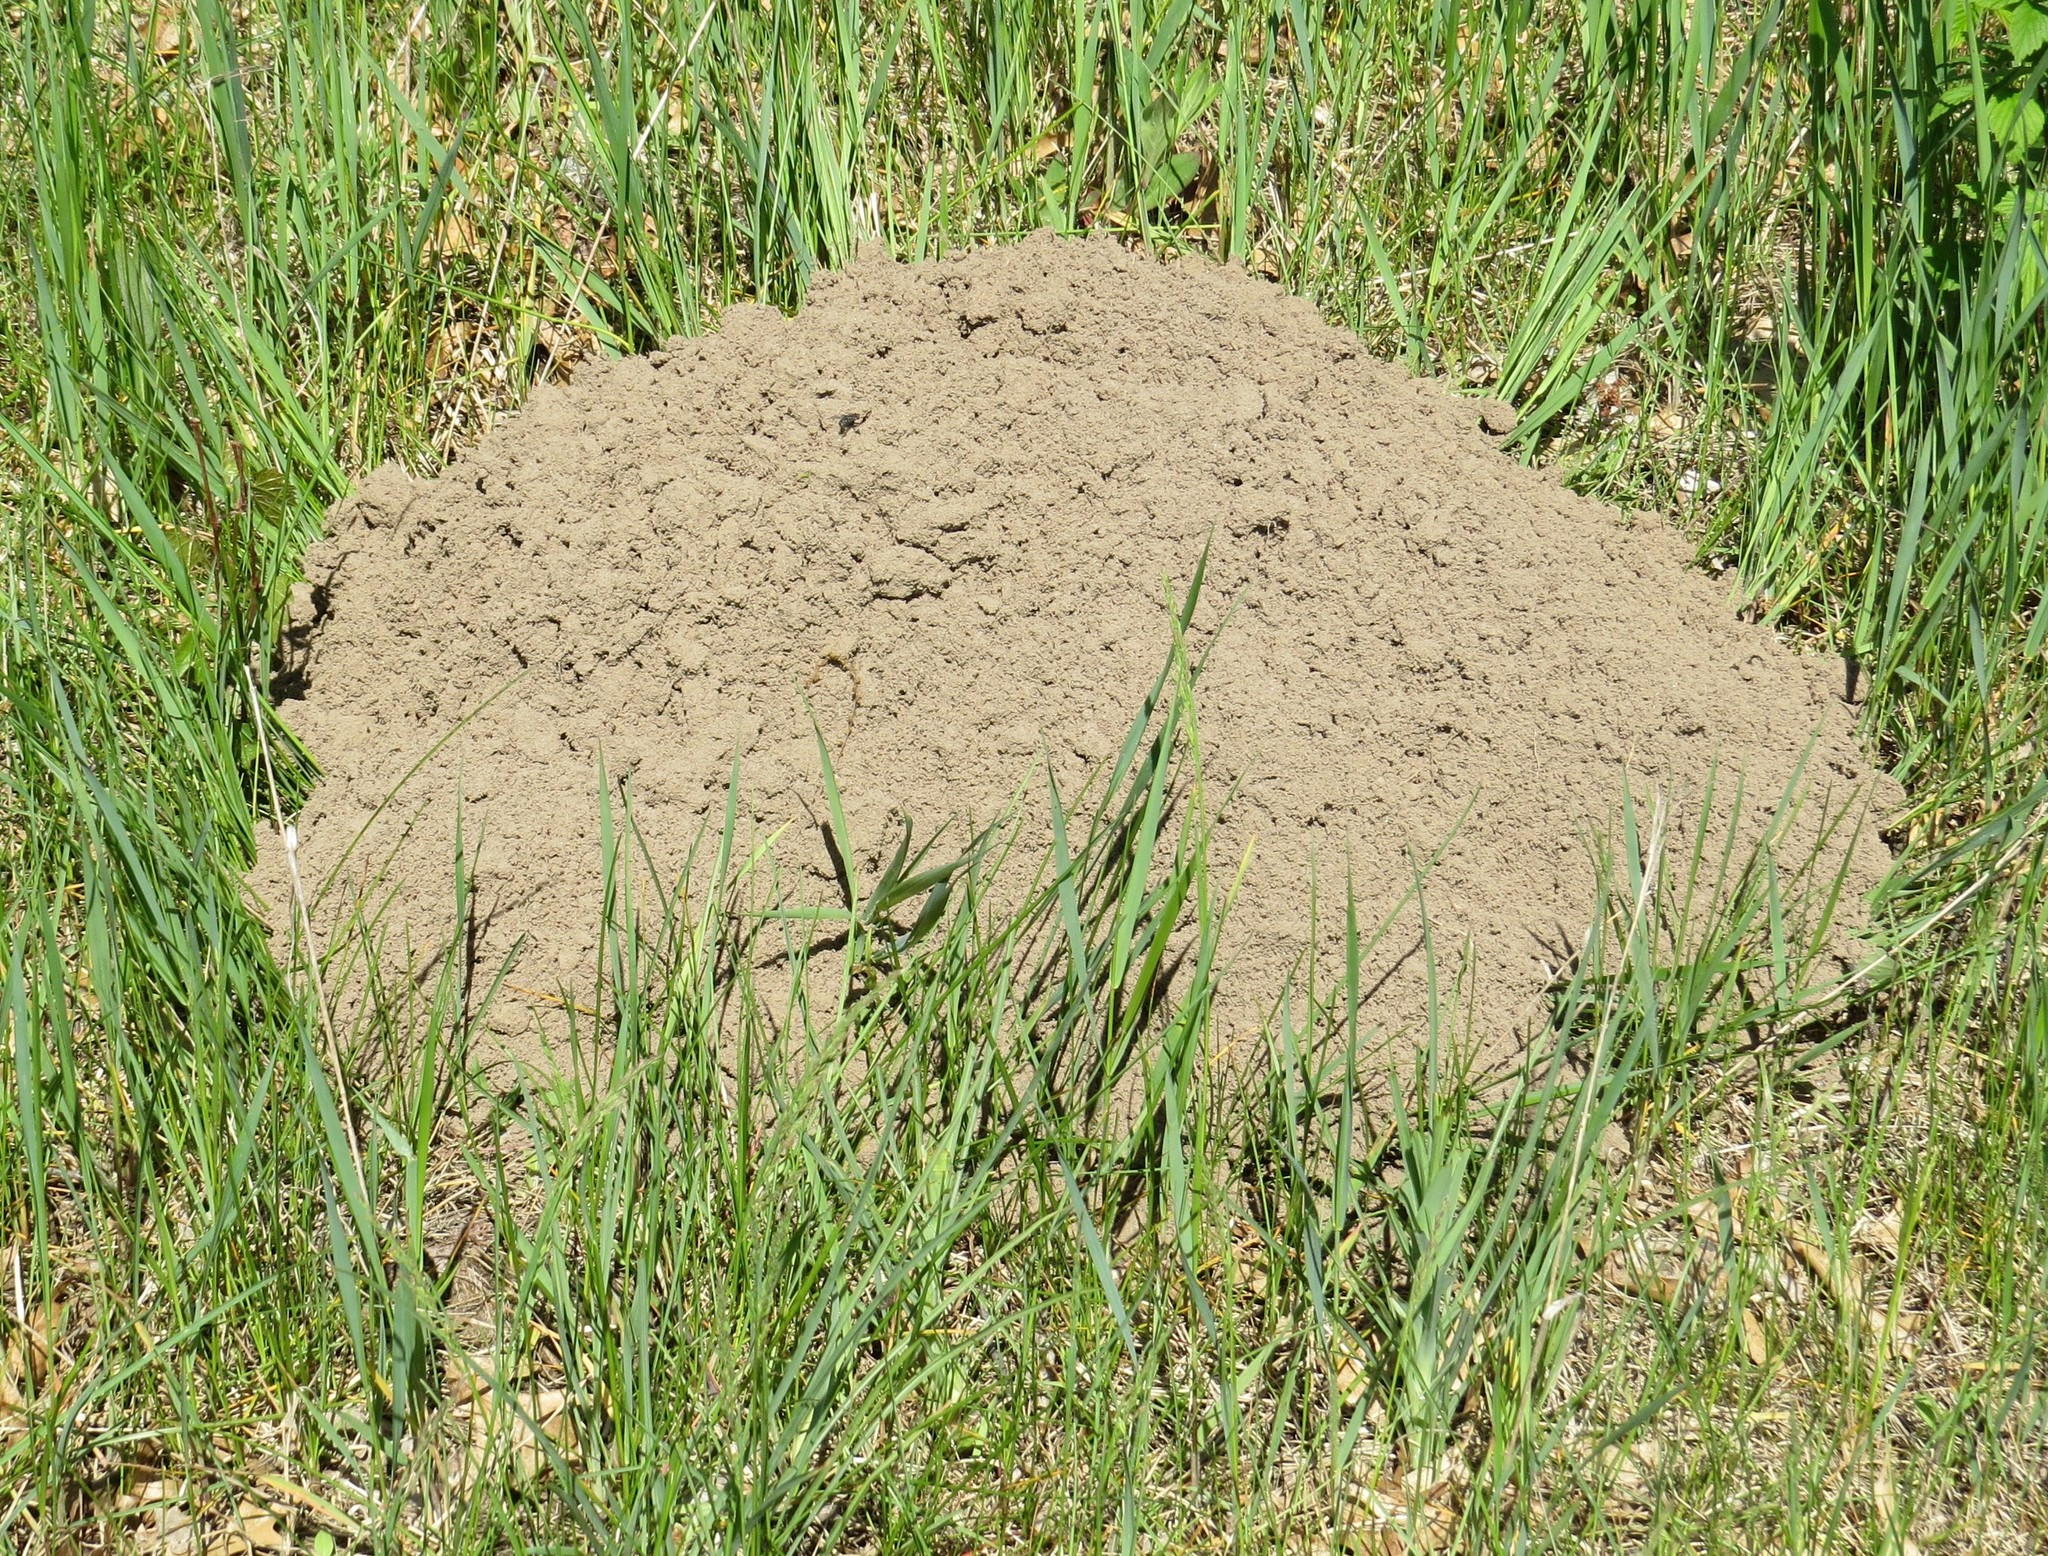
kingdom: Animalia
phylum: Chordata
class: Mammalia
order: Rodentia
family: Geomyidae
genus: Geomys
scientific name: Geomys bursarius
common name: Plains pocket gopher
